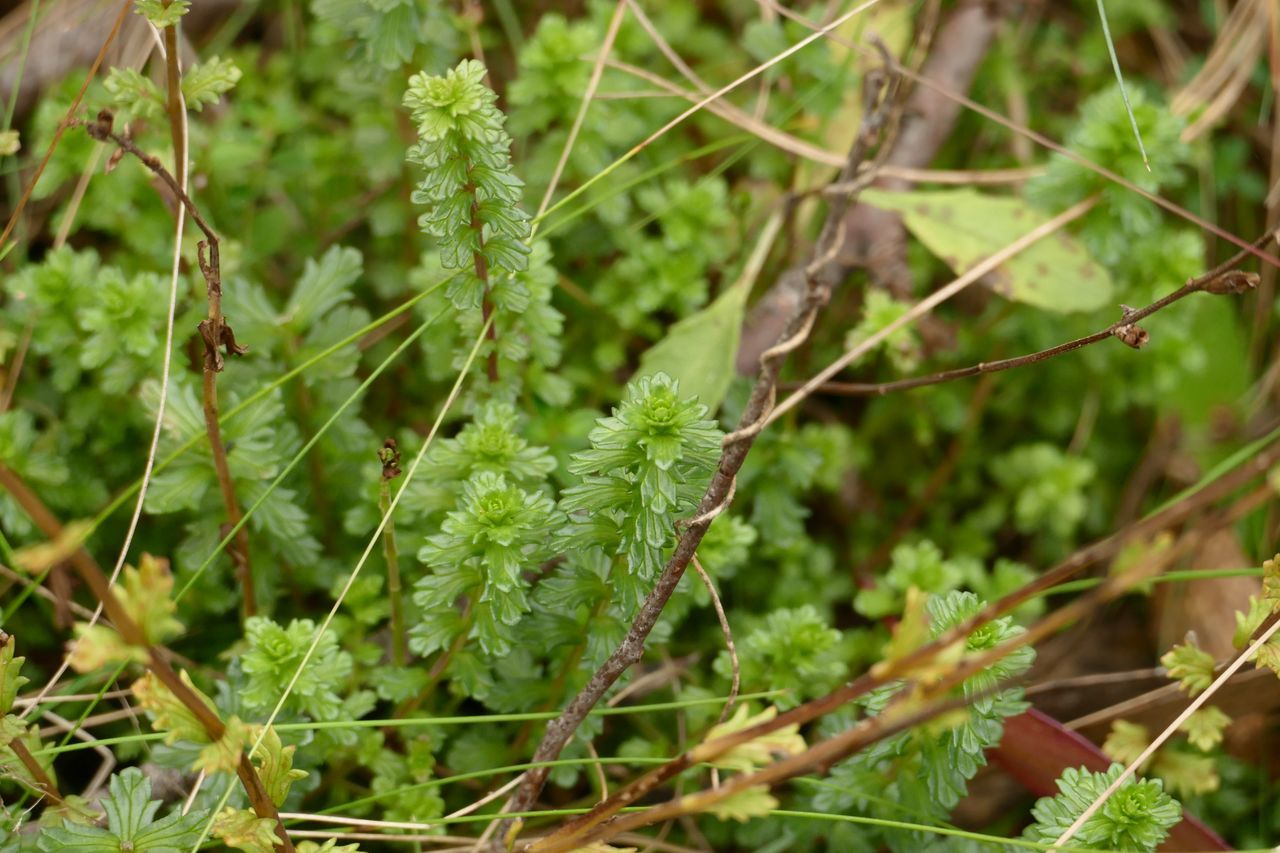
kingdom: Plantae
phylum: Tracheophyta
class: Magnoliopsida
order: Lamiales
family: Orobanchaceae
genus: Euphrasia
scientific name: Euphrasia
